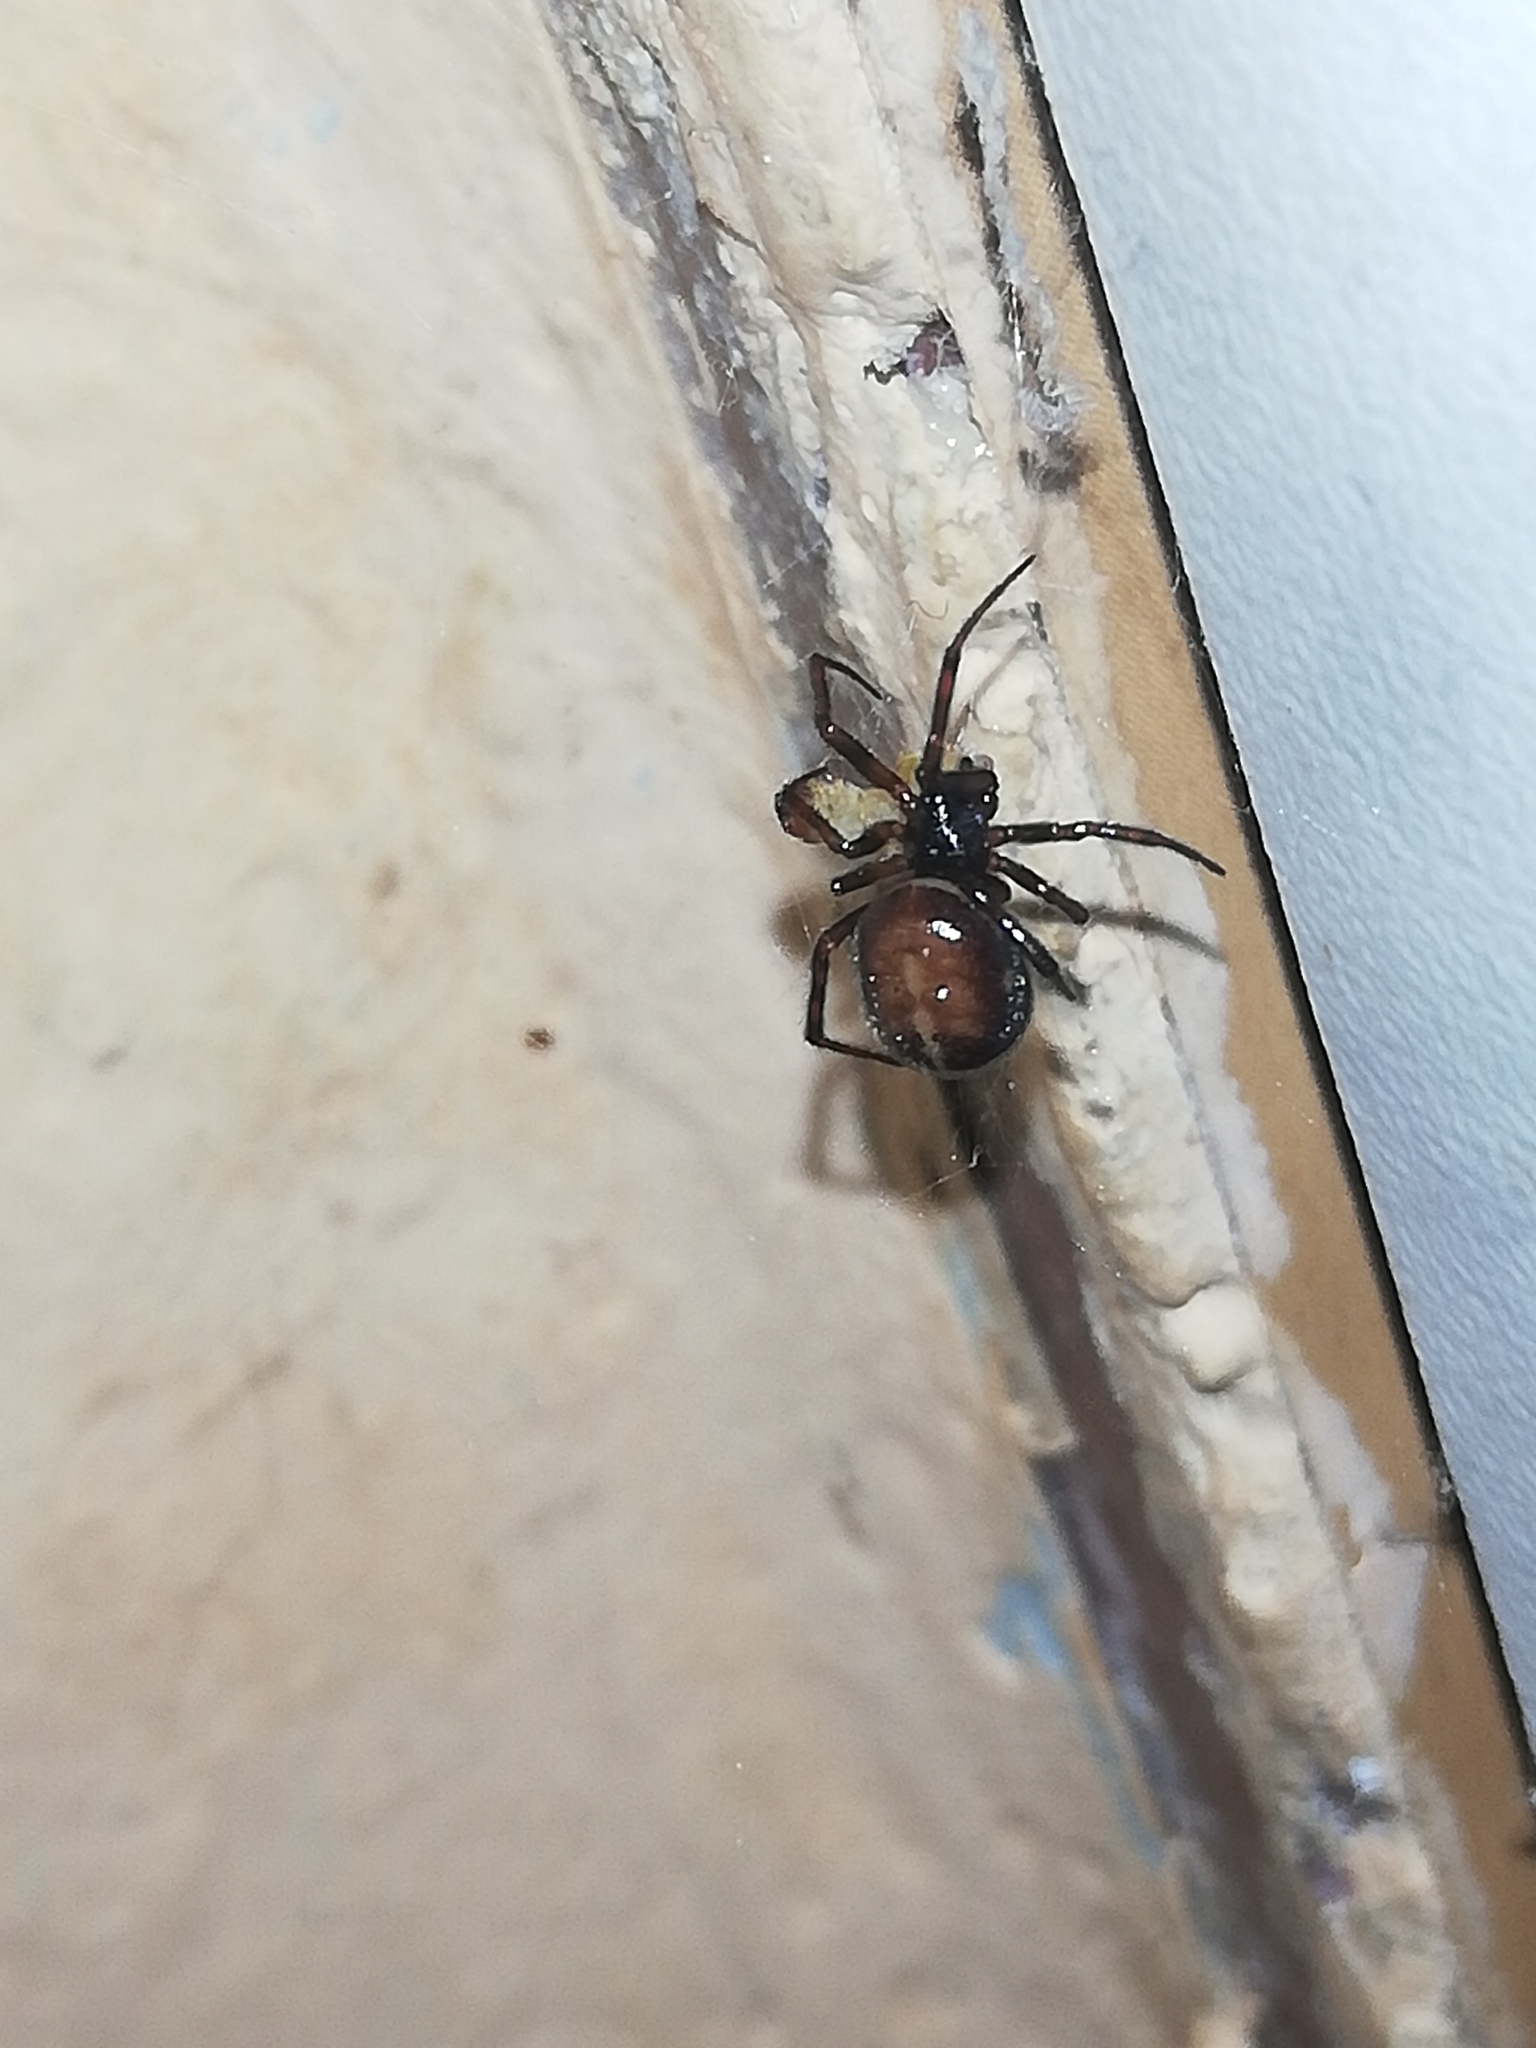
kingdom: Animalia
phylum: Arthropoda
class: Arachnida
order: Araneae
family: Theridiidae
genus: Steatoda
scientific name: Steatoda bipunctata
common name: False widow
